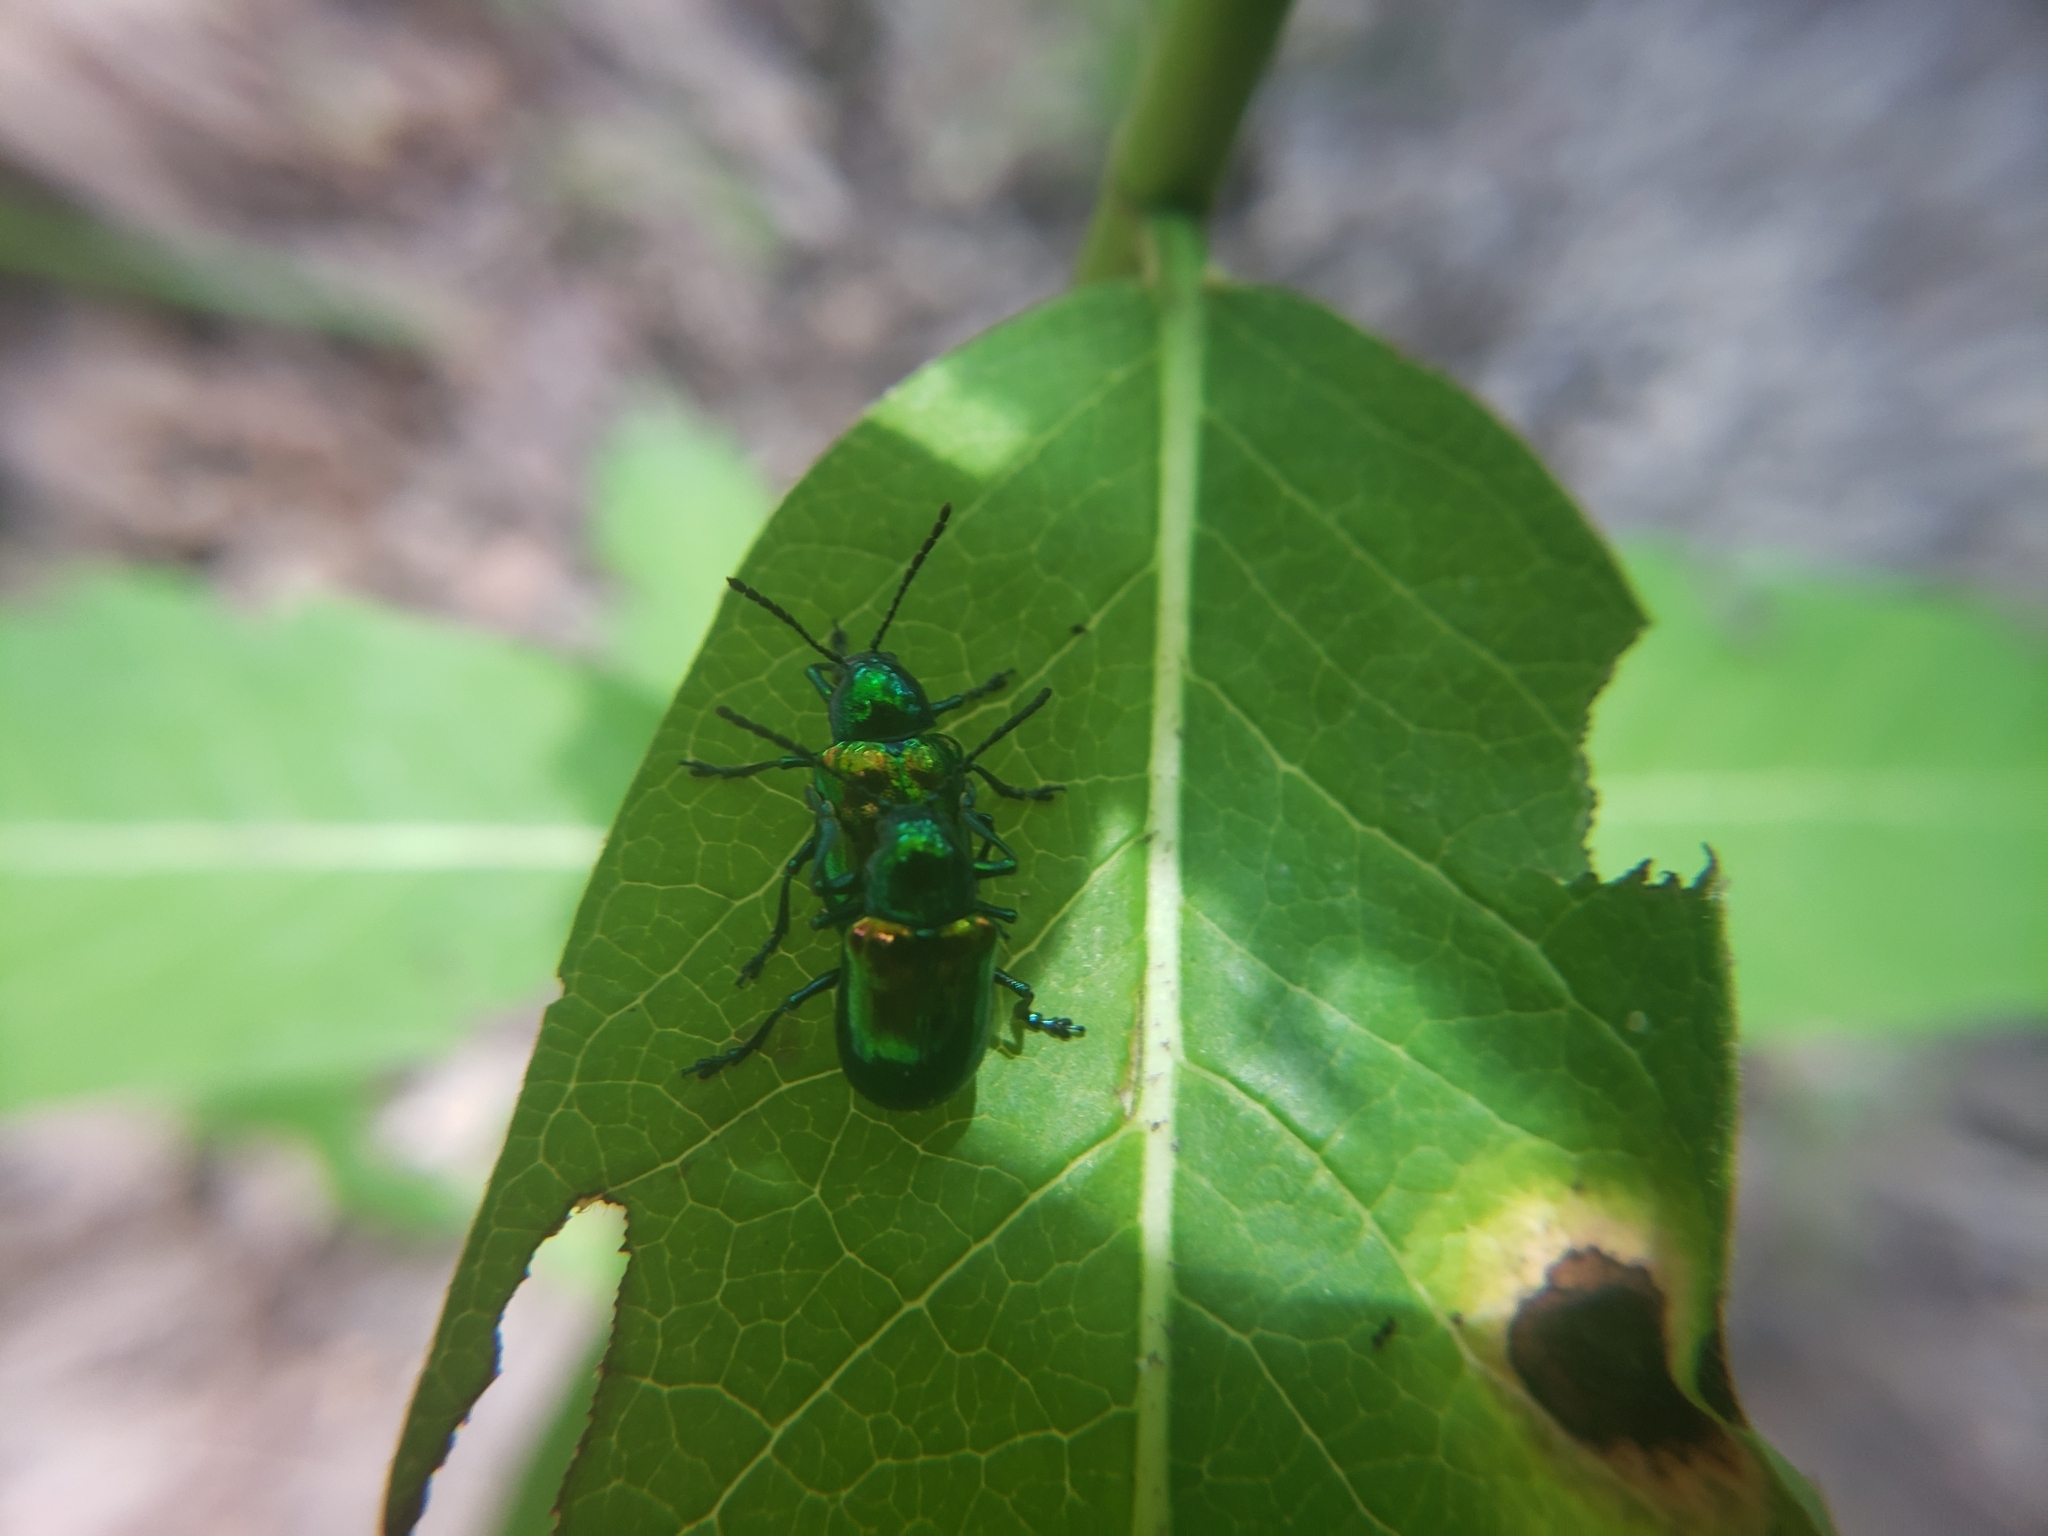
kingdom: Animalia
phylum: Arthropoda
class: Insecta
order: Coleoptera
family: Chrysomelidae
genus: Chrysochus
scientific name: Chrysochus auratus
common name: Dogbane leaf beetle
